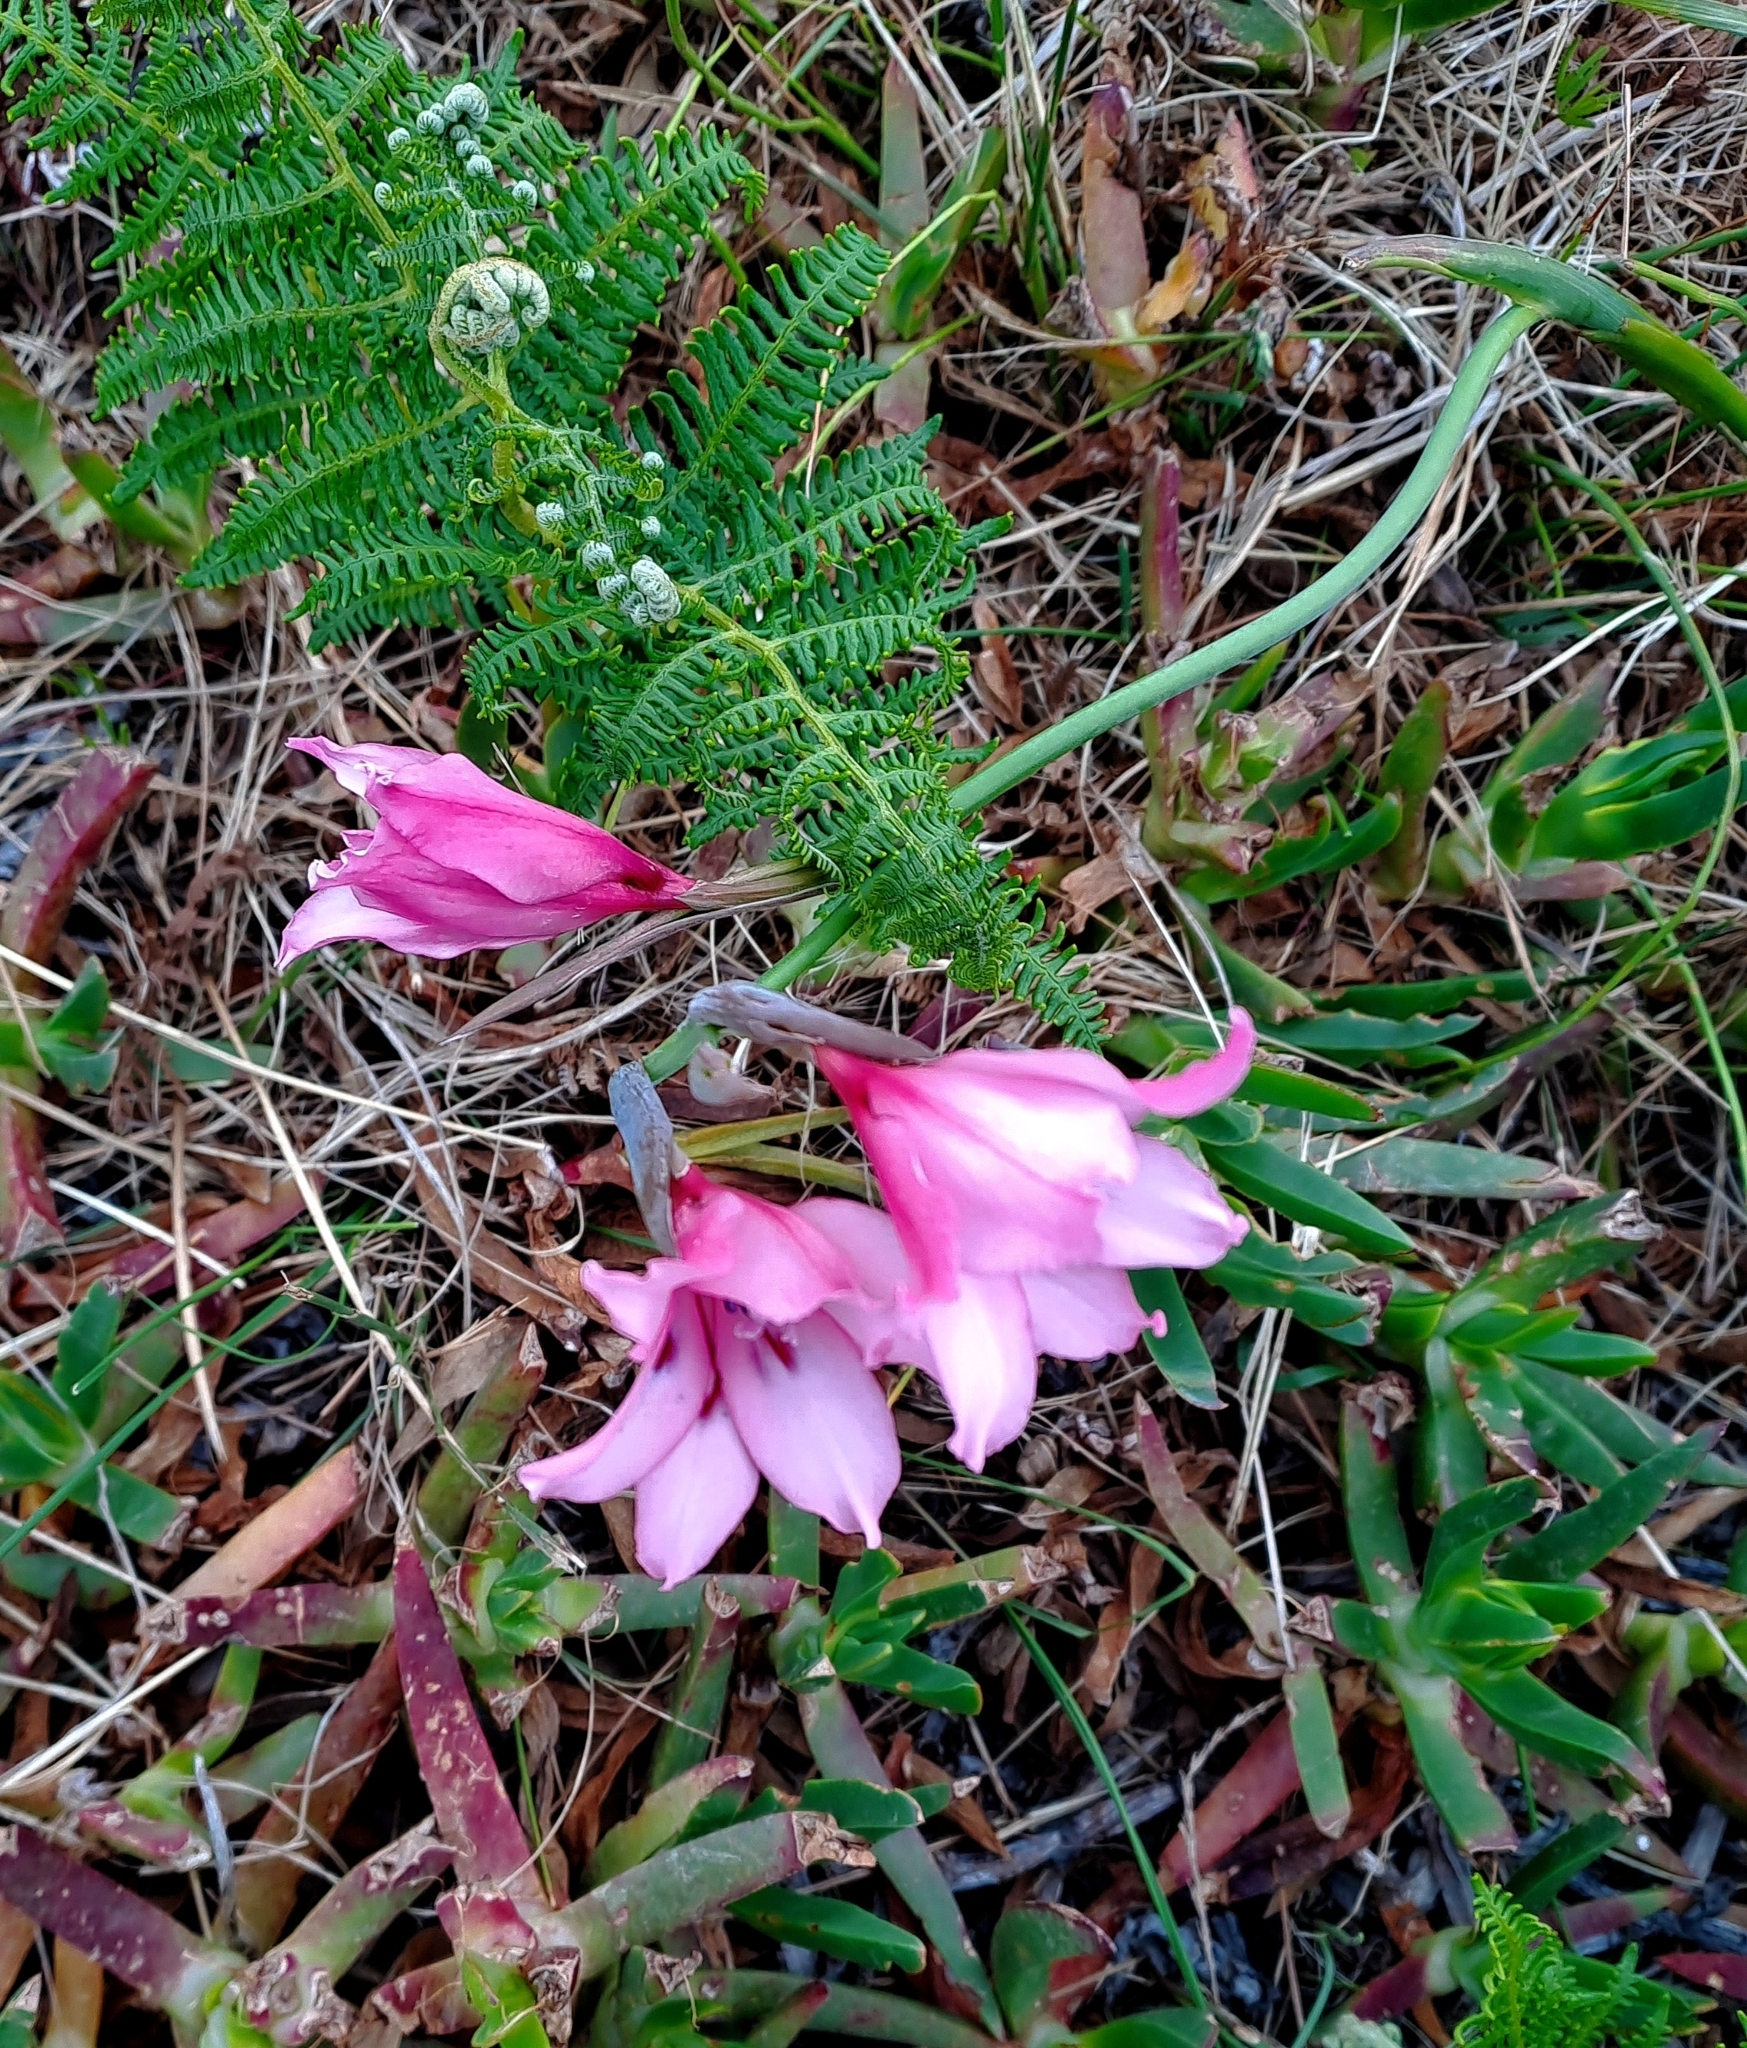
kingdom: Plantae
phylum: Tracheophyta
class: Liliopsida
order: Asparagales
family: Iridaceae
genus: Gladiolus
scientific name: Gladiolus carneus
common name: Painted-lady
